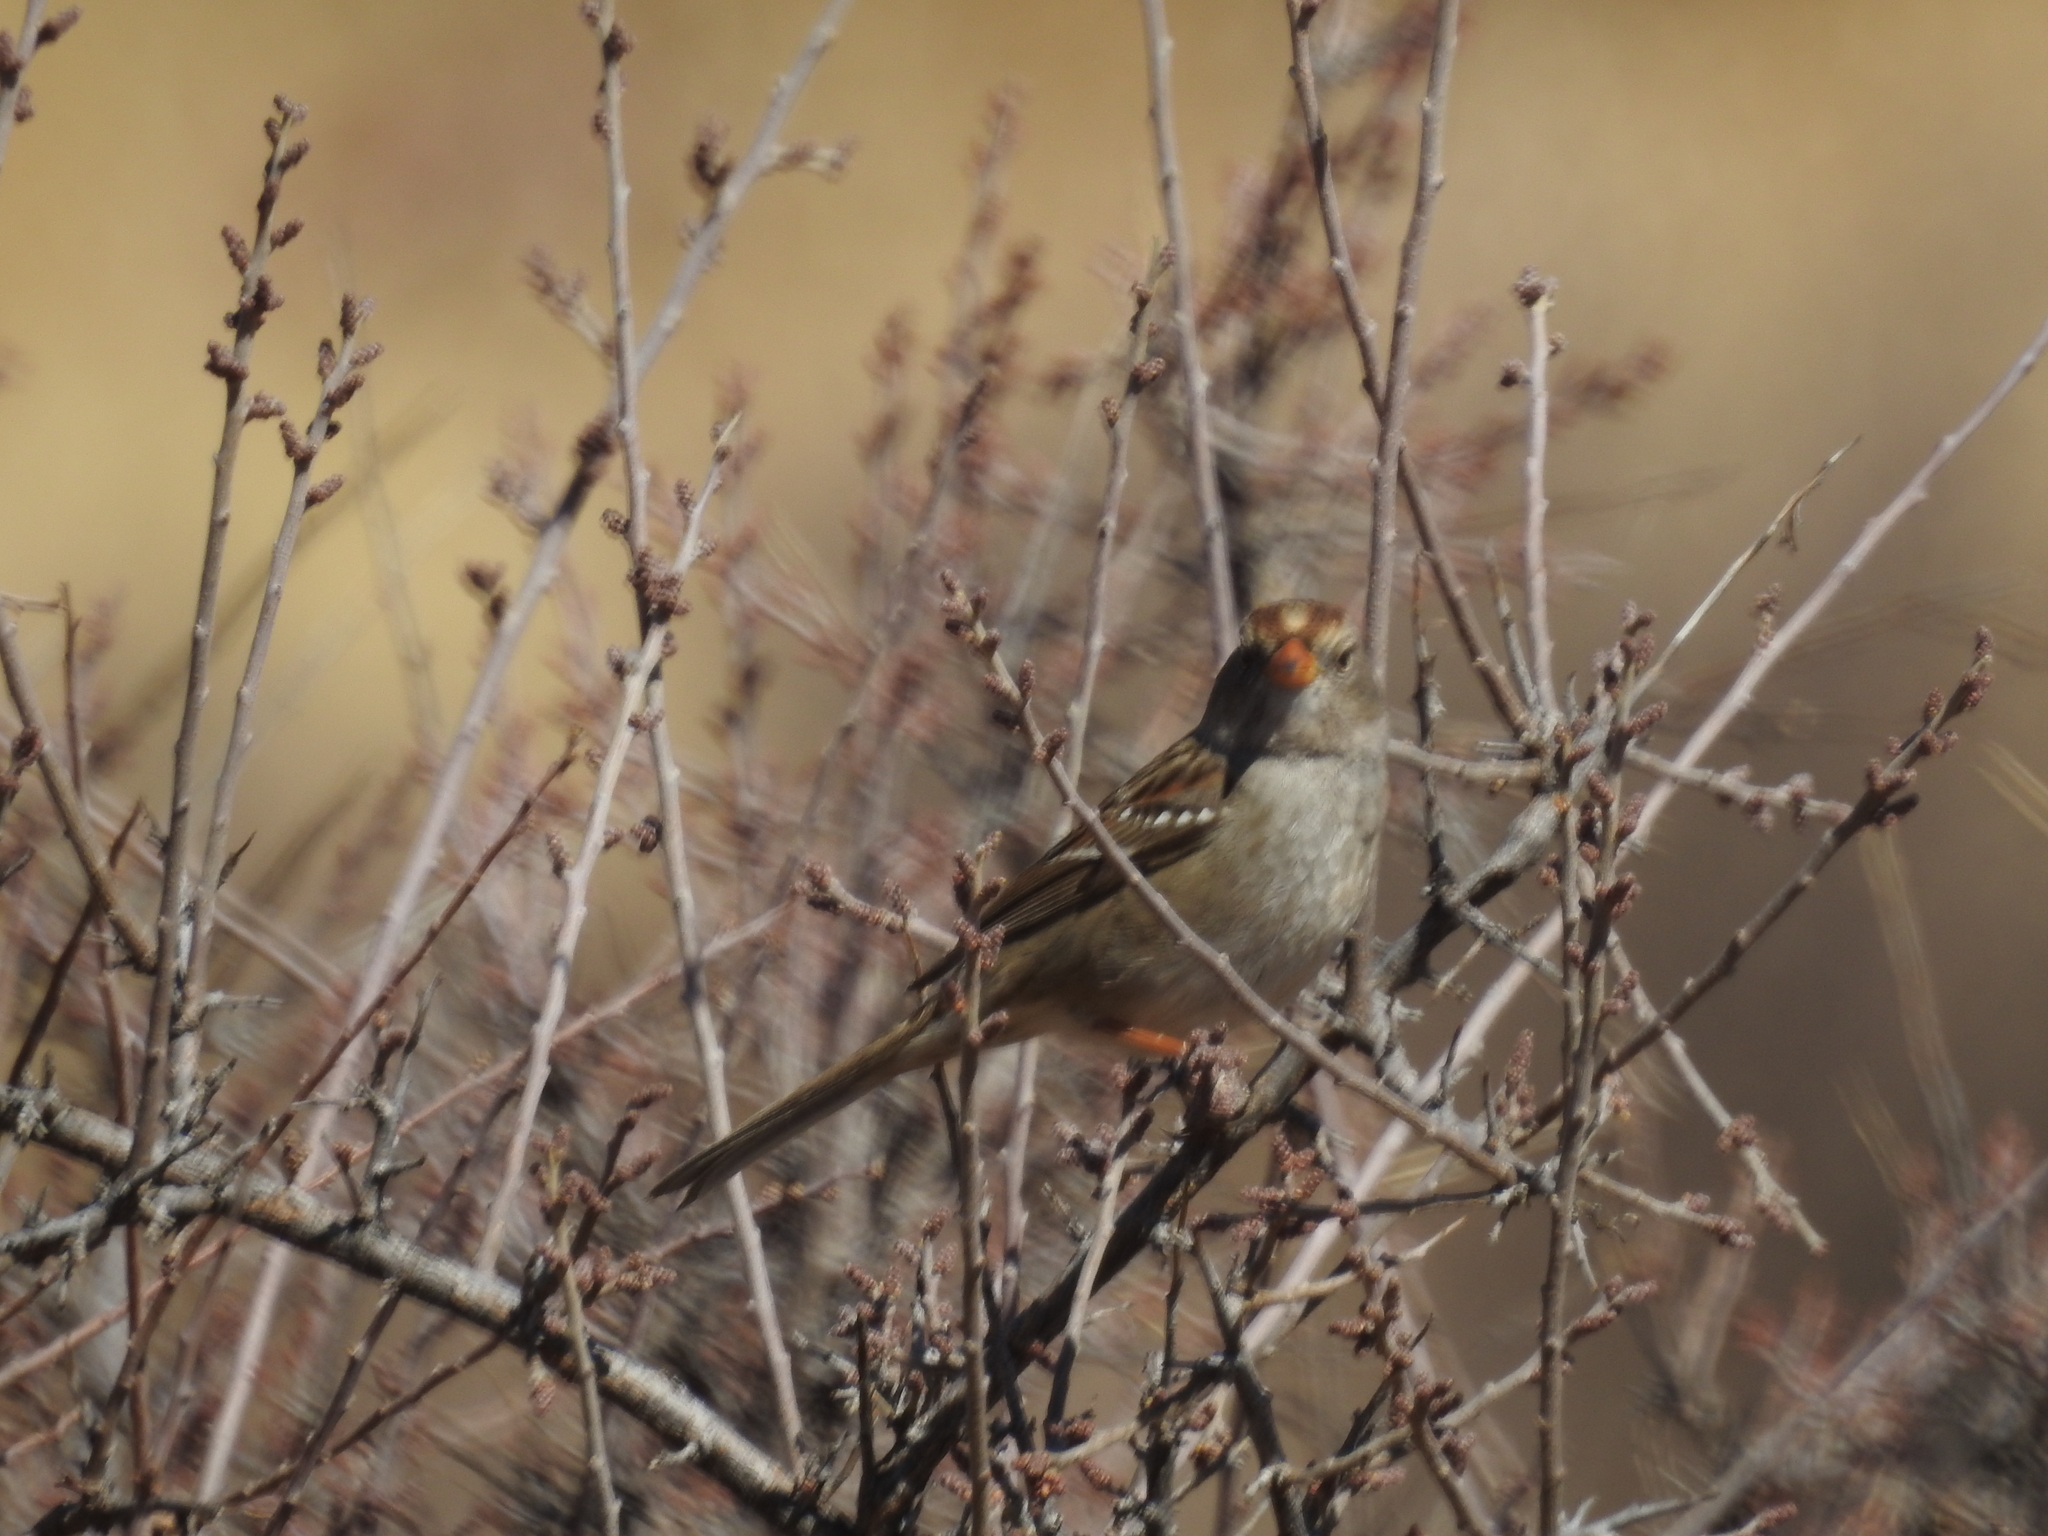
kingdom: Animalia
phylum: Chordata
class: Aves
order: Passeriformes
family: Passerellidae
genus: Zonotrichia
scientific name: Zonotrichia leucophrys
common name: White-crowned sparrow
